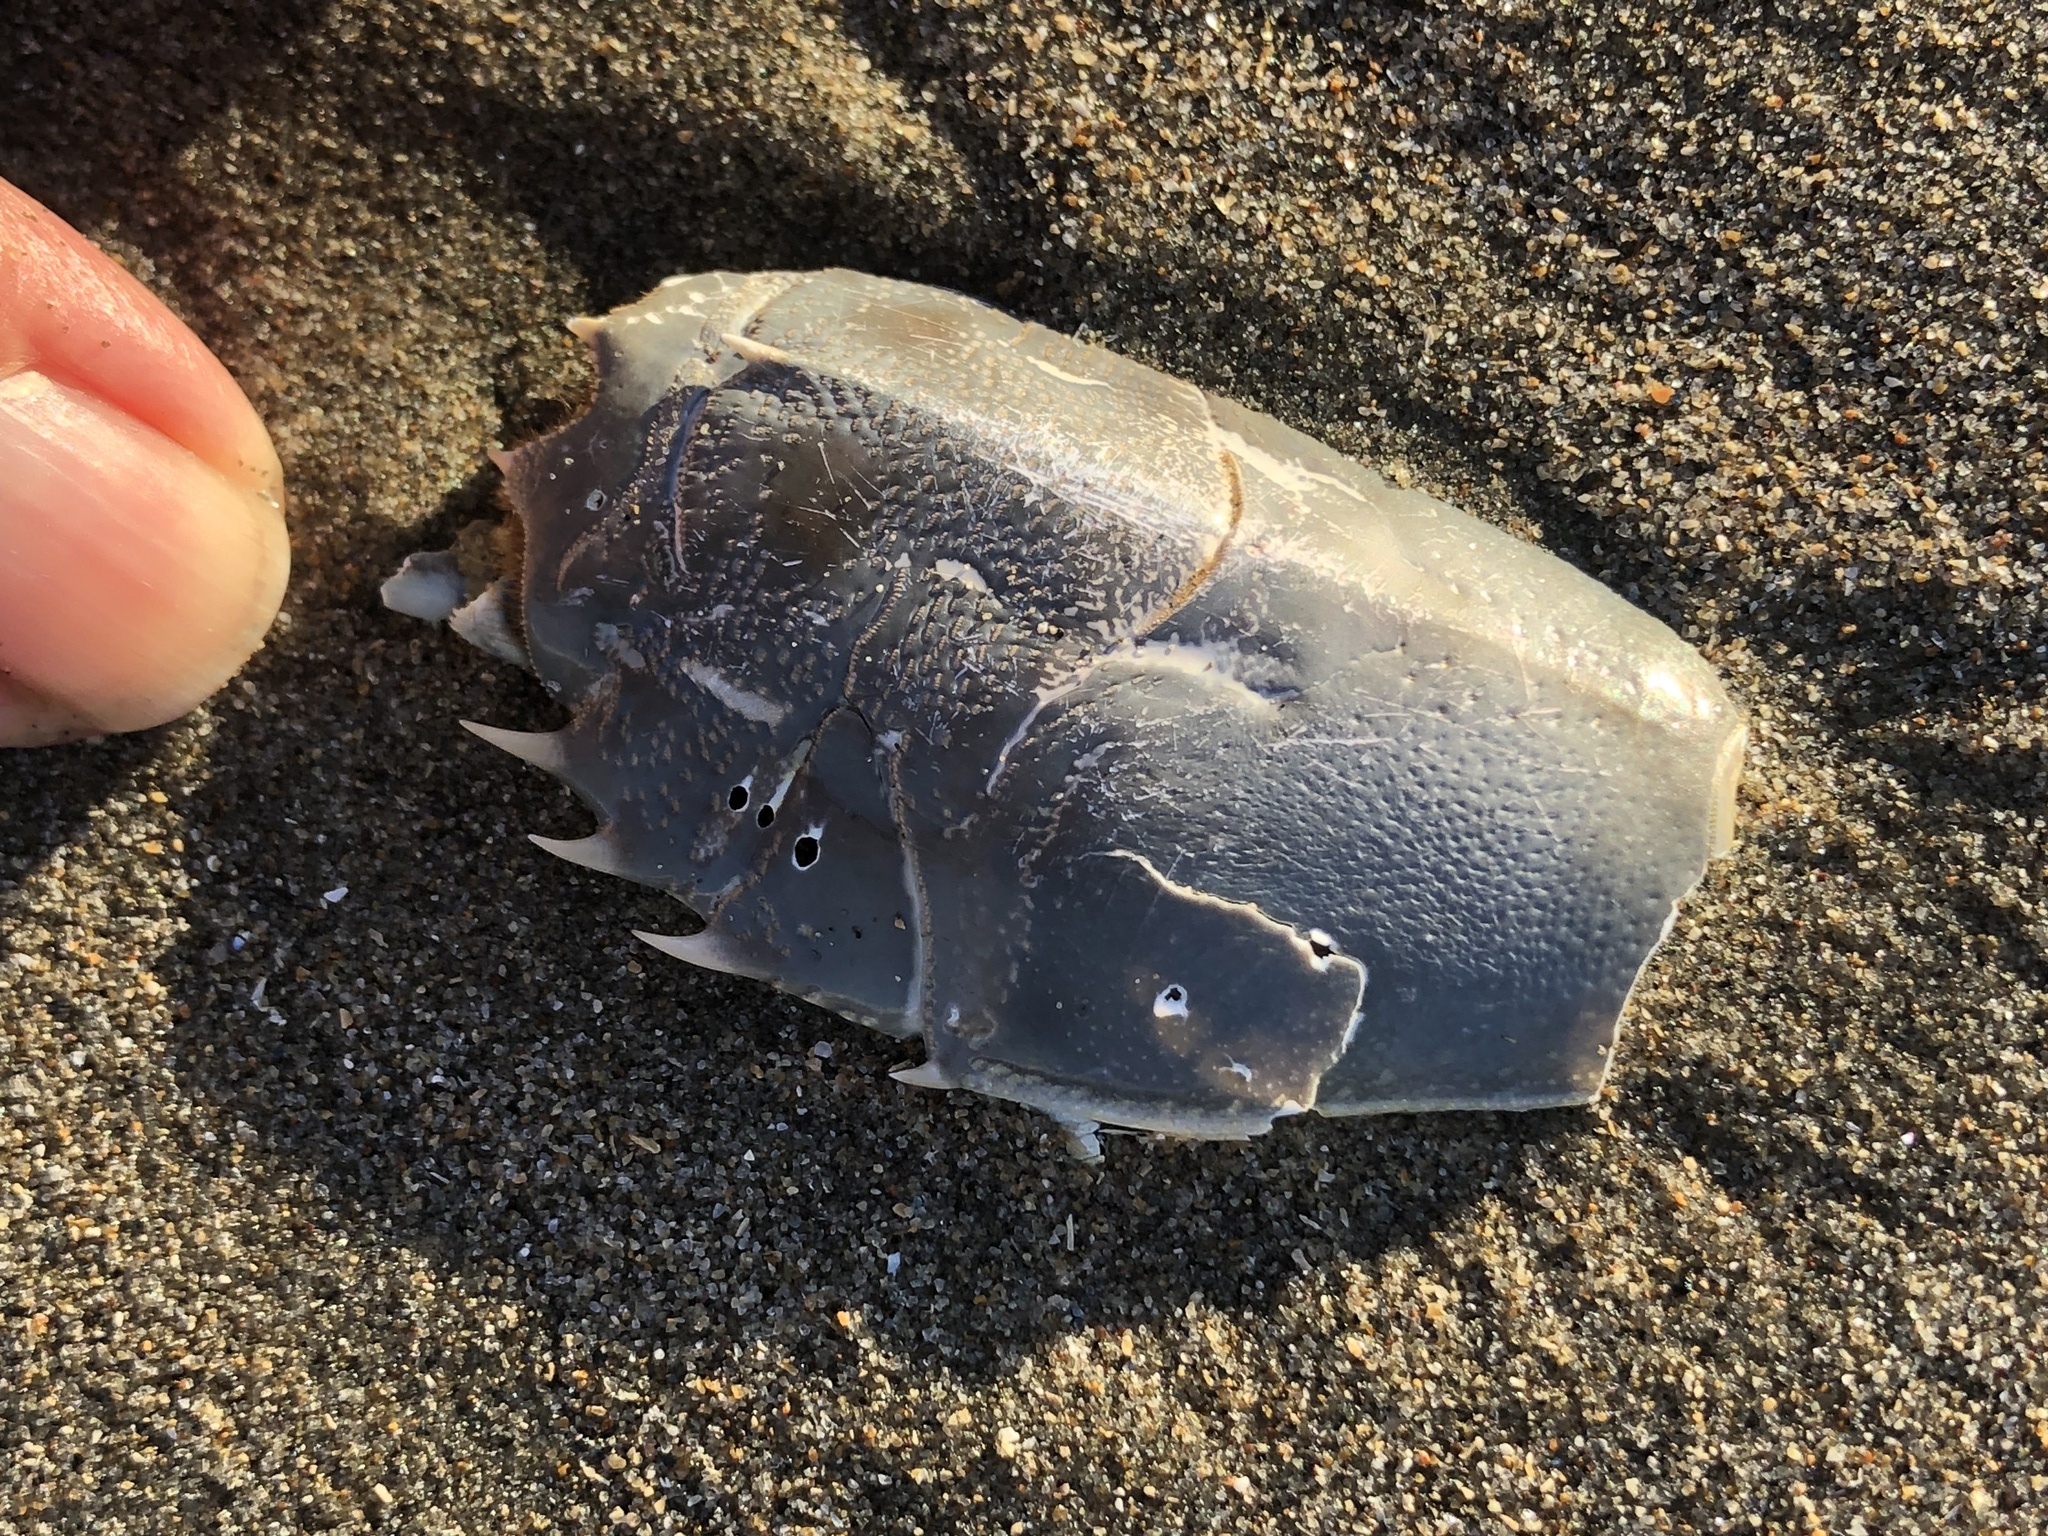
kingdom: Animalia
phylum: Arthropoda
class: Malacostraca
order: Decapoda
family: Blepharipodidae
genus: Blepharipoda
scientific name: Blepharipoda occidentalis
